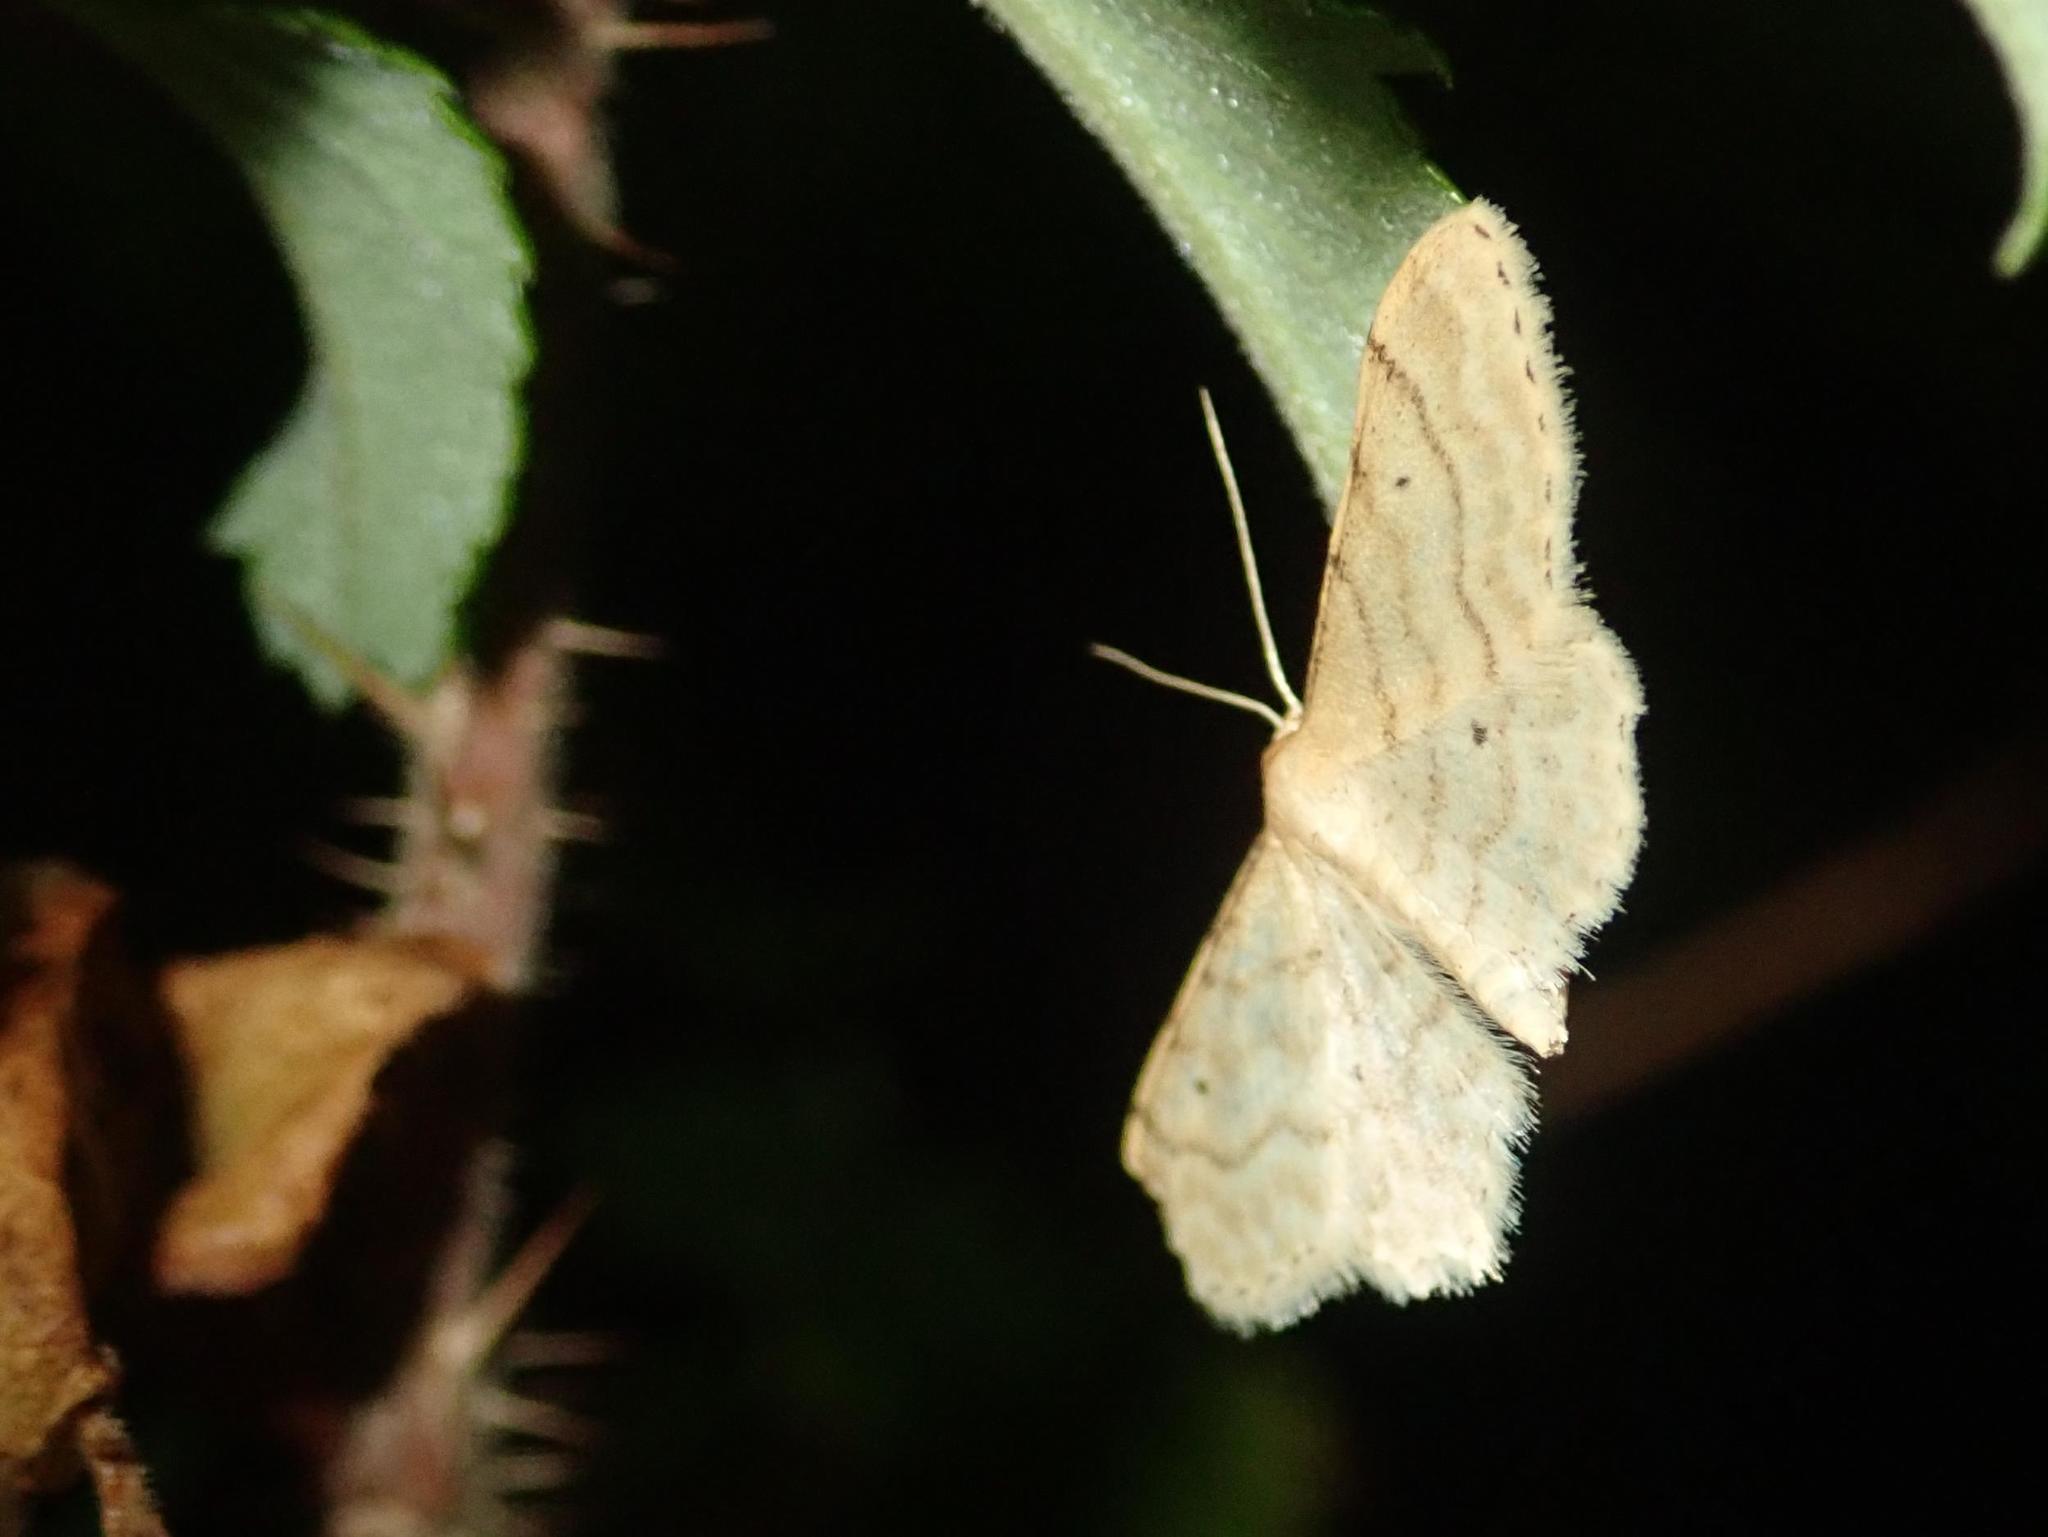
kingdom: Animalia
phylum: Arthropoda
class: Insecta
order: Lepidoptera
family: Geometridae
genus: Idaea
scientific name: Idaea fuscovenosa
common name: Dwarf cream wave
